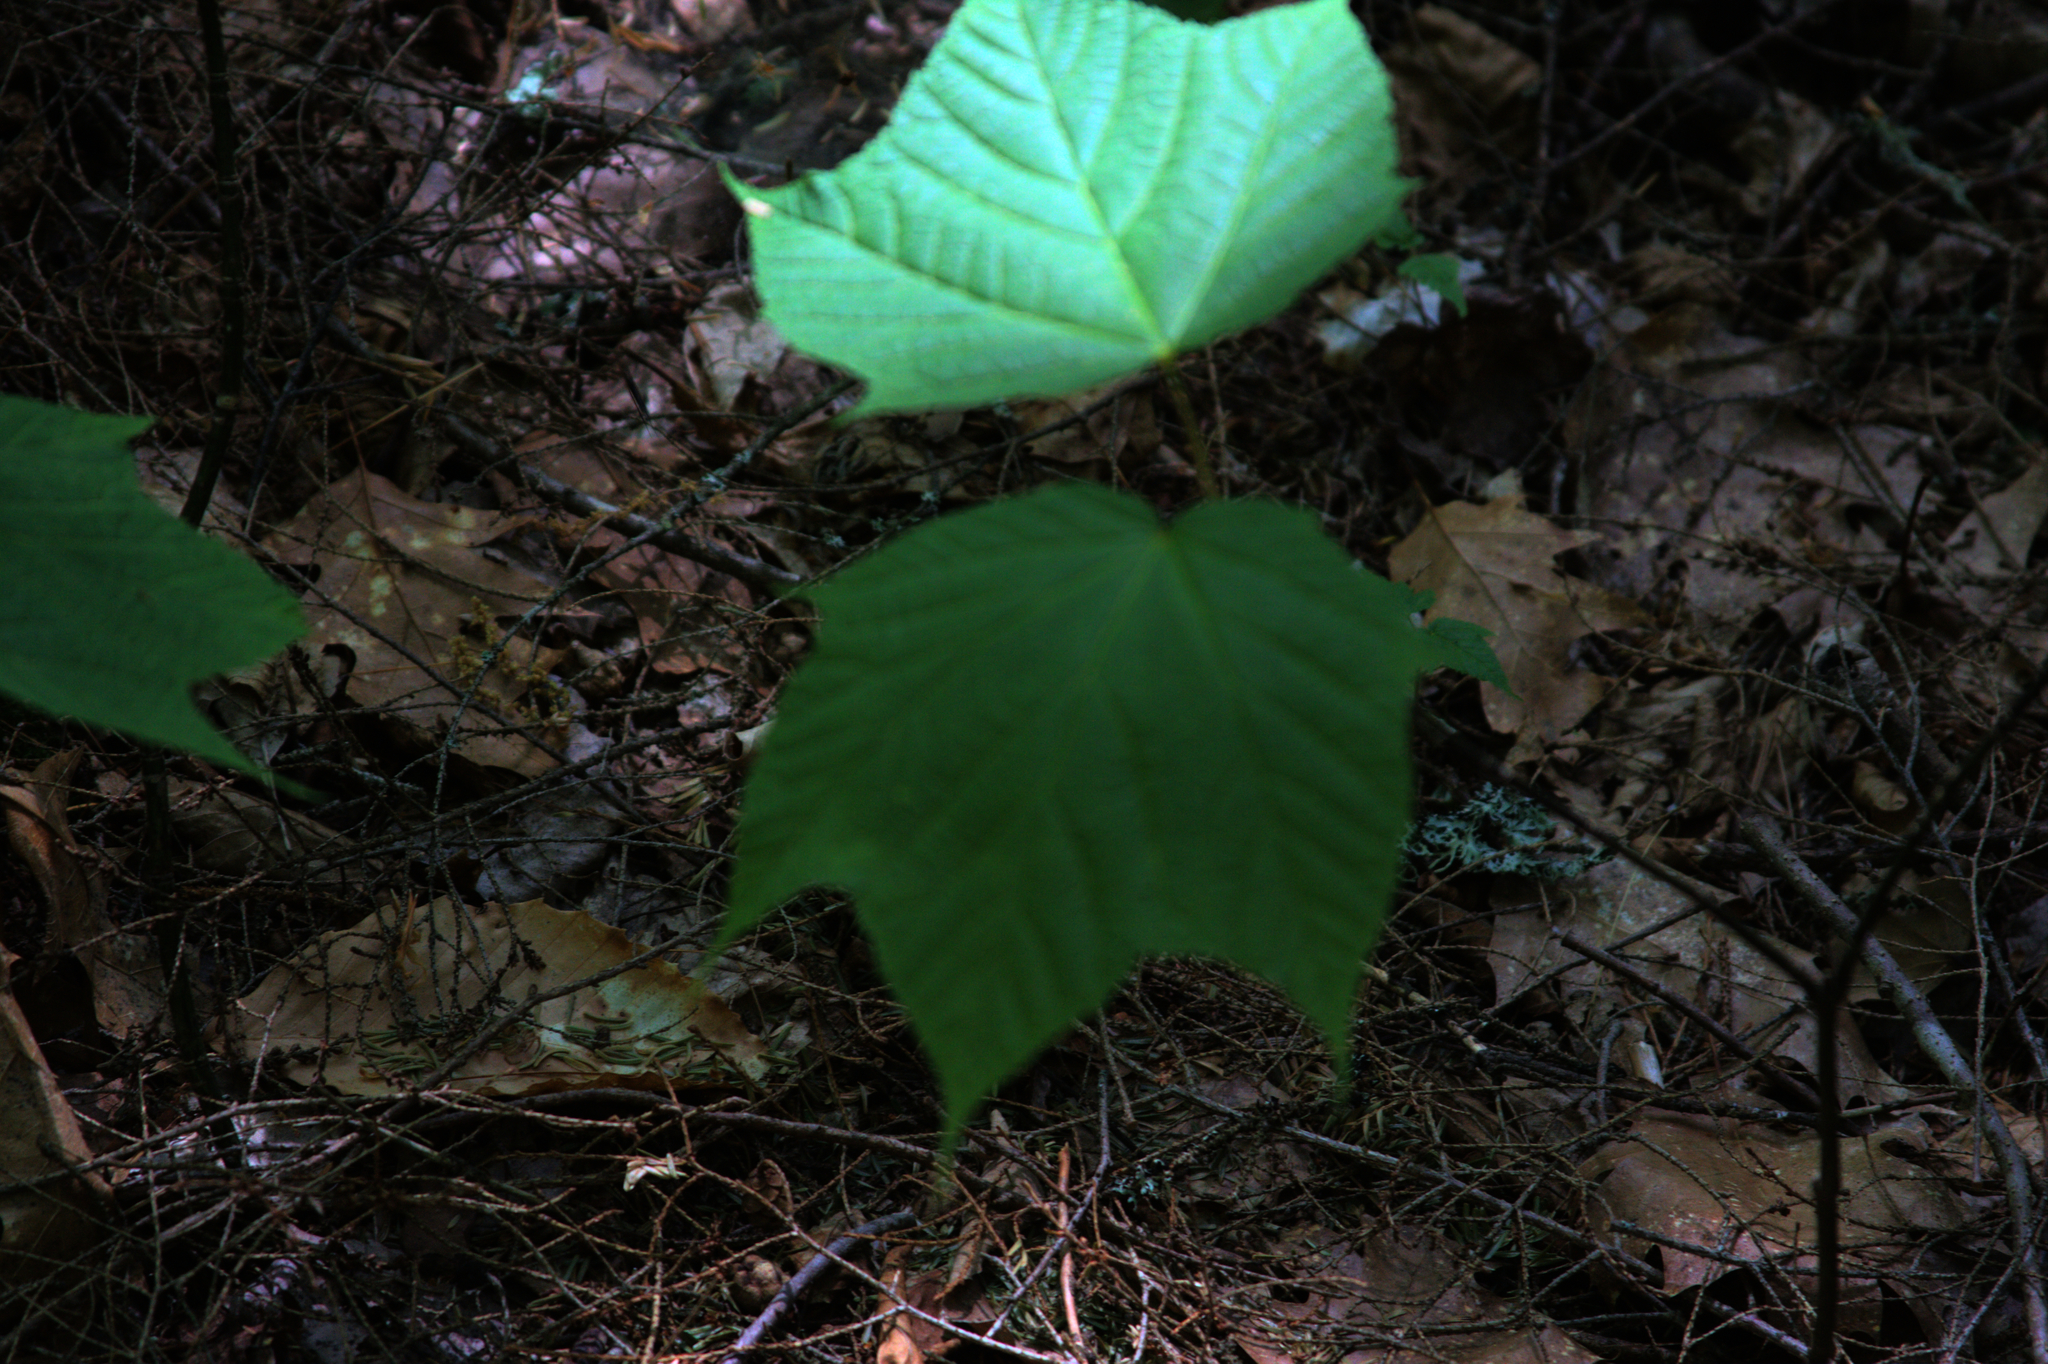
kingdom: Plantae
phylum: Tracheophyta
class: Magnoliopsida
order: Sapindales
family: Sapindaceae
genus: Acer
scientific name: Acer pensylvanicum
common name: Moosewood
